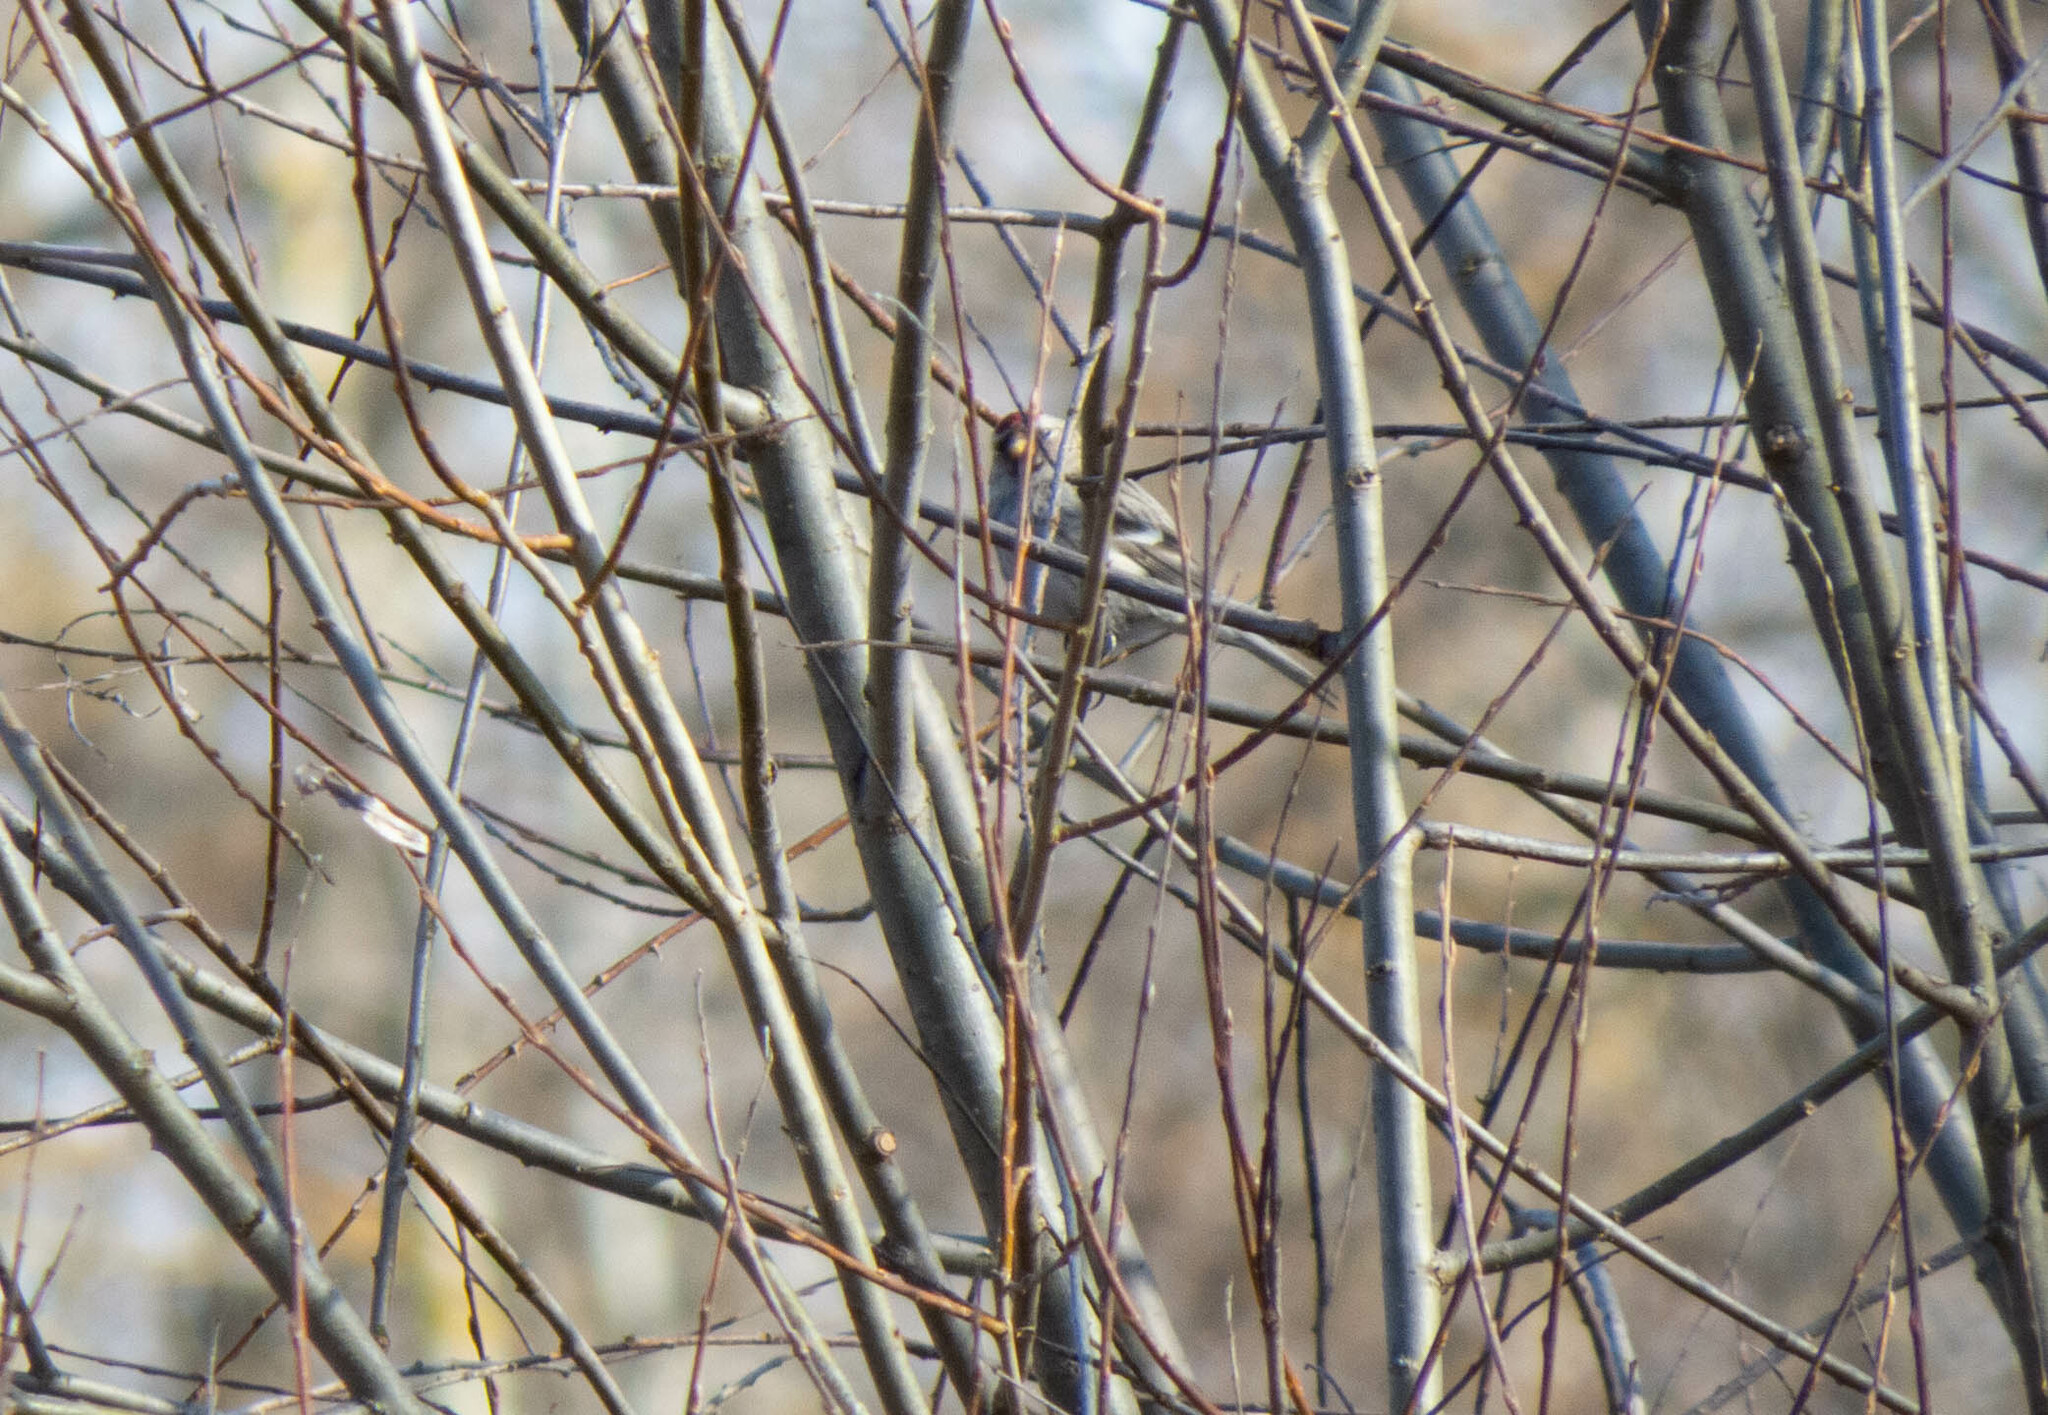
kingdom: Animalia
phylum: Chordata
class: Aves
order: Passeriformes
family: Fringillidae
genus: Acanthis
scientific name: Acanthis flammea
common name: Common redpoll
